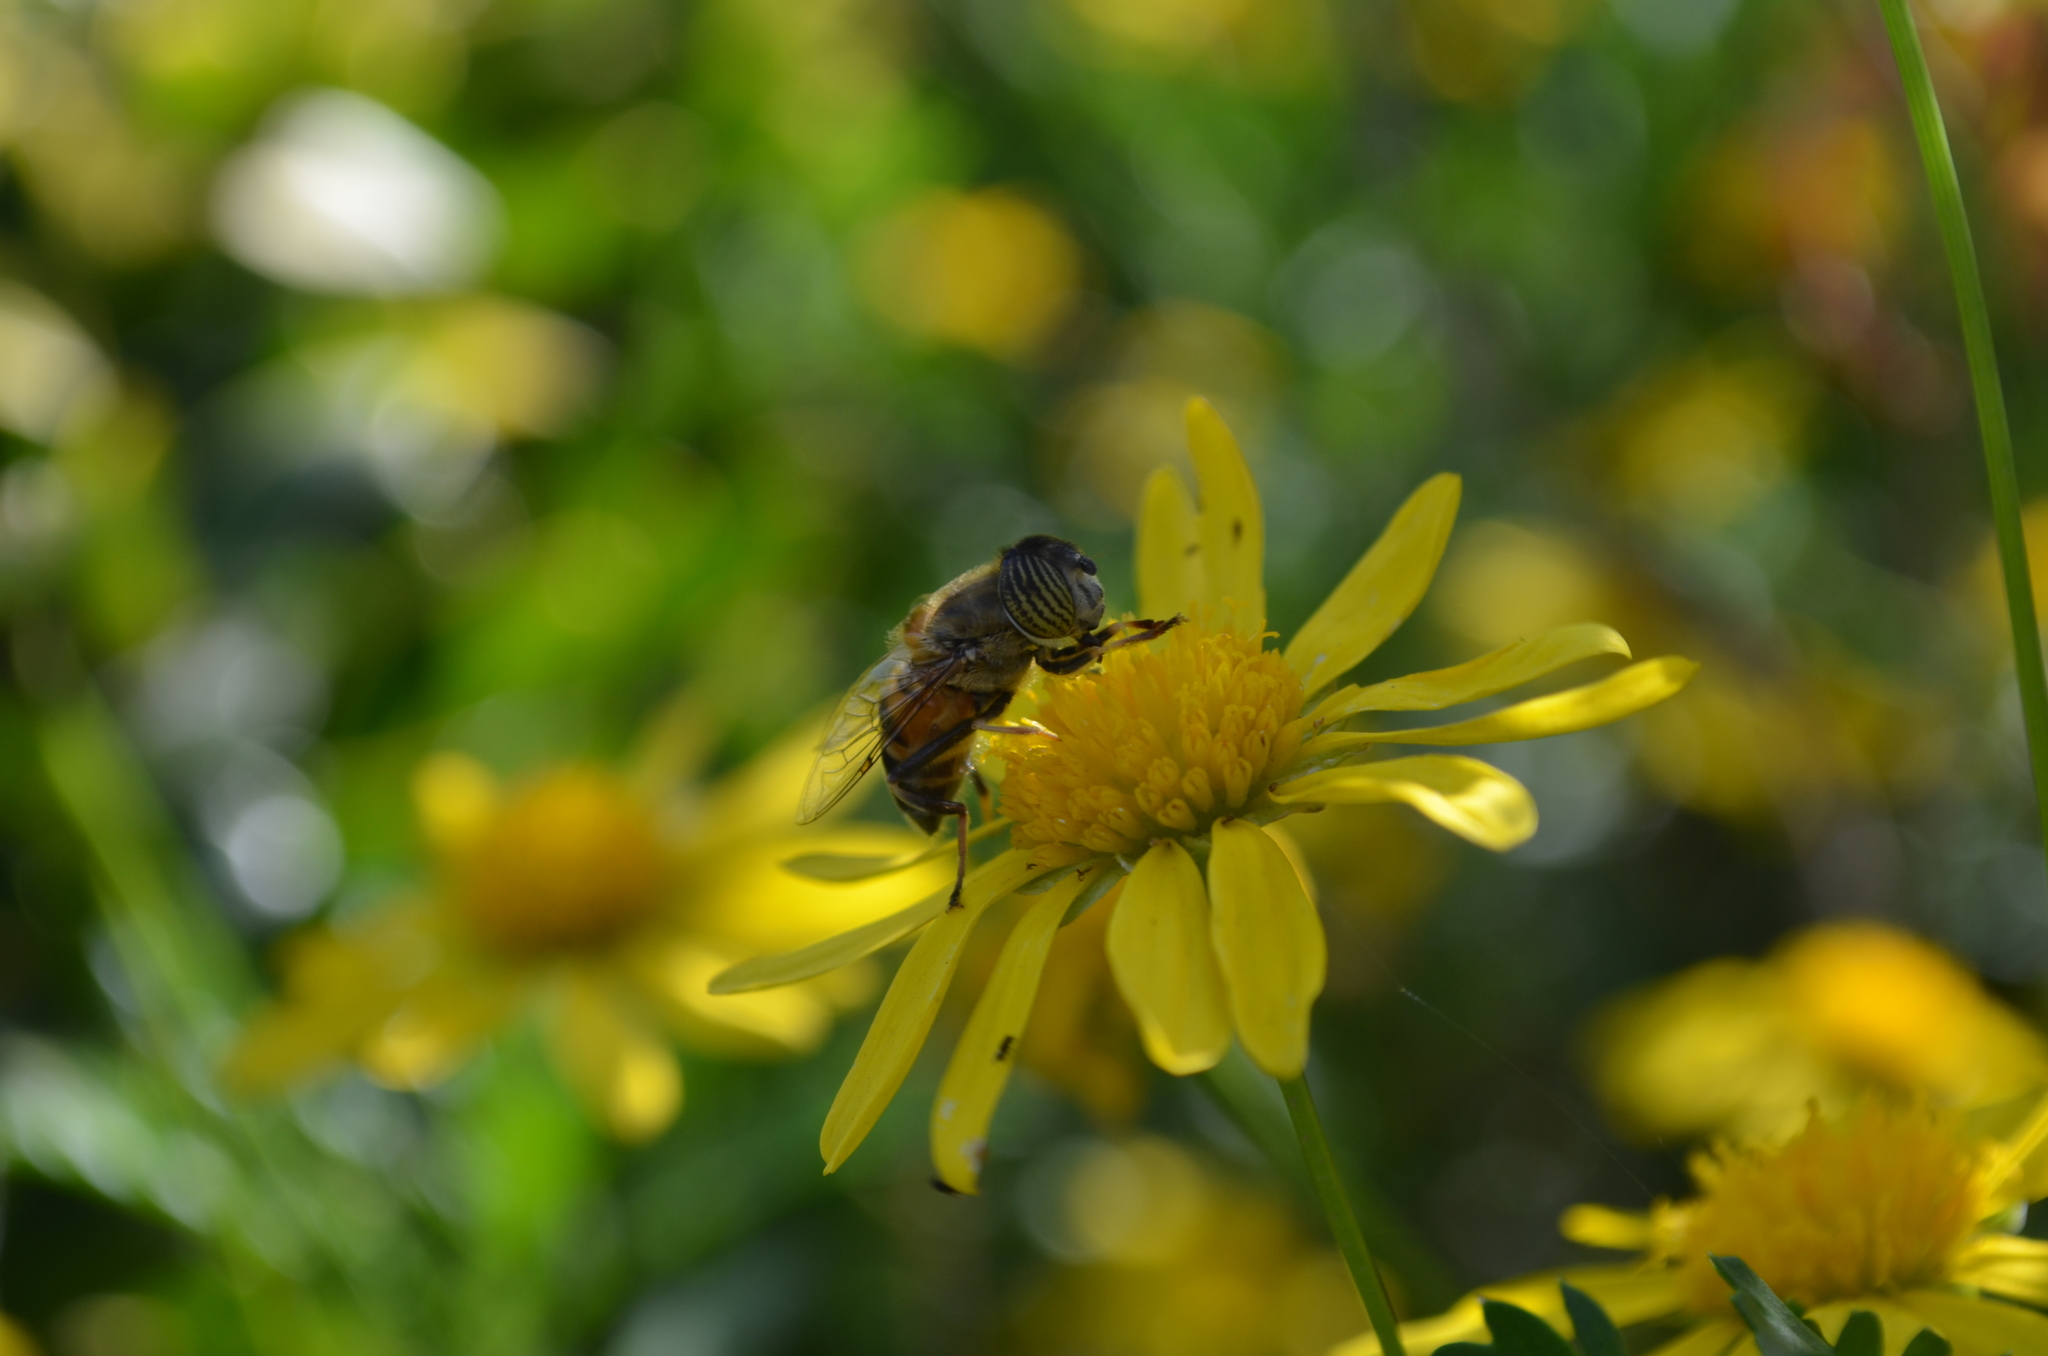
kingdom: Animalia
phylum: Arthropoda
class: Insecta
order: Diptera
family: Syrphidae
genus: Eristalinus
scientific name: Eristalinus taeniops
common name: Syrphid fly
